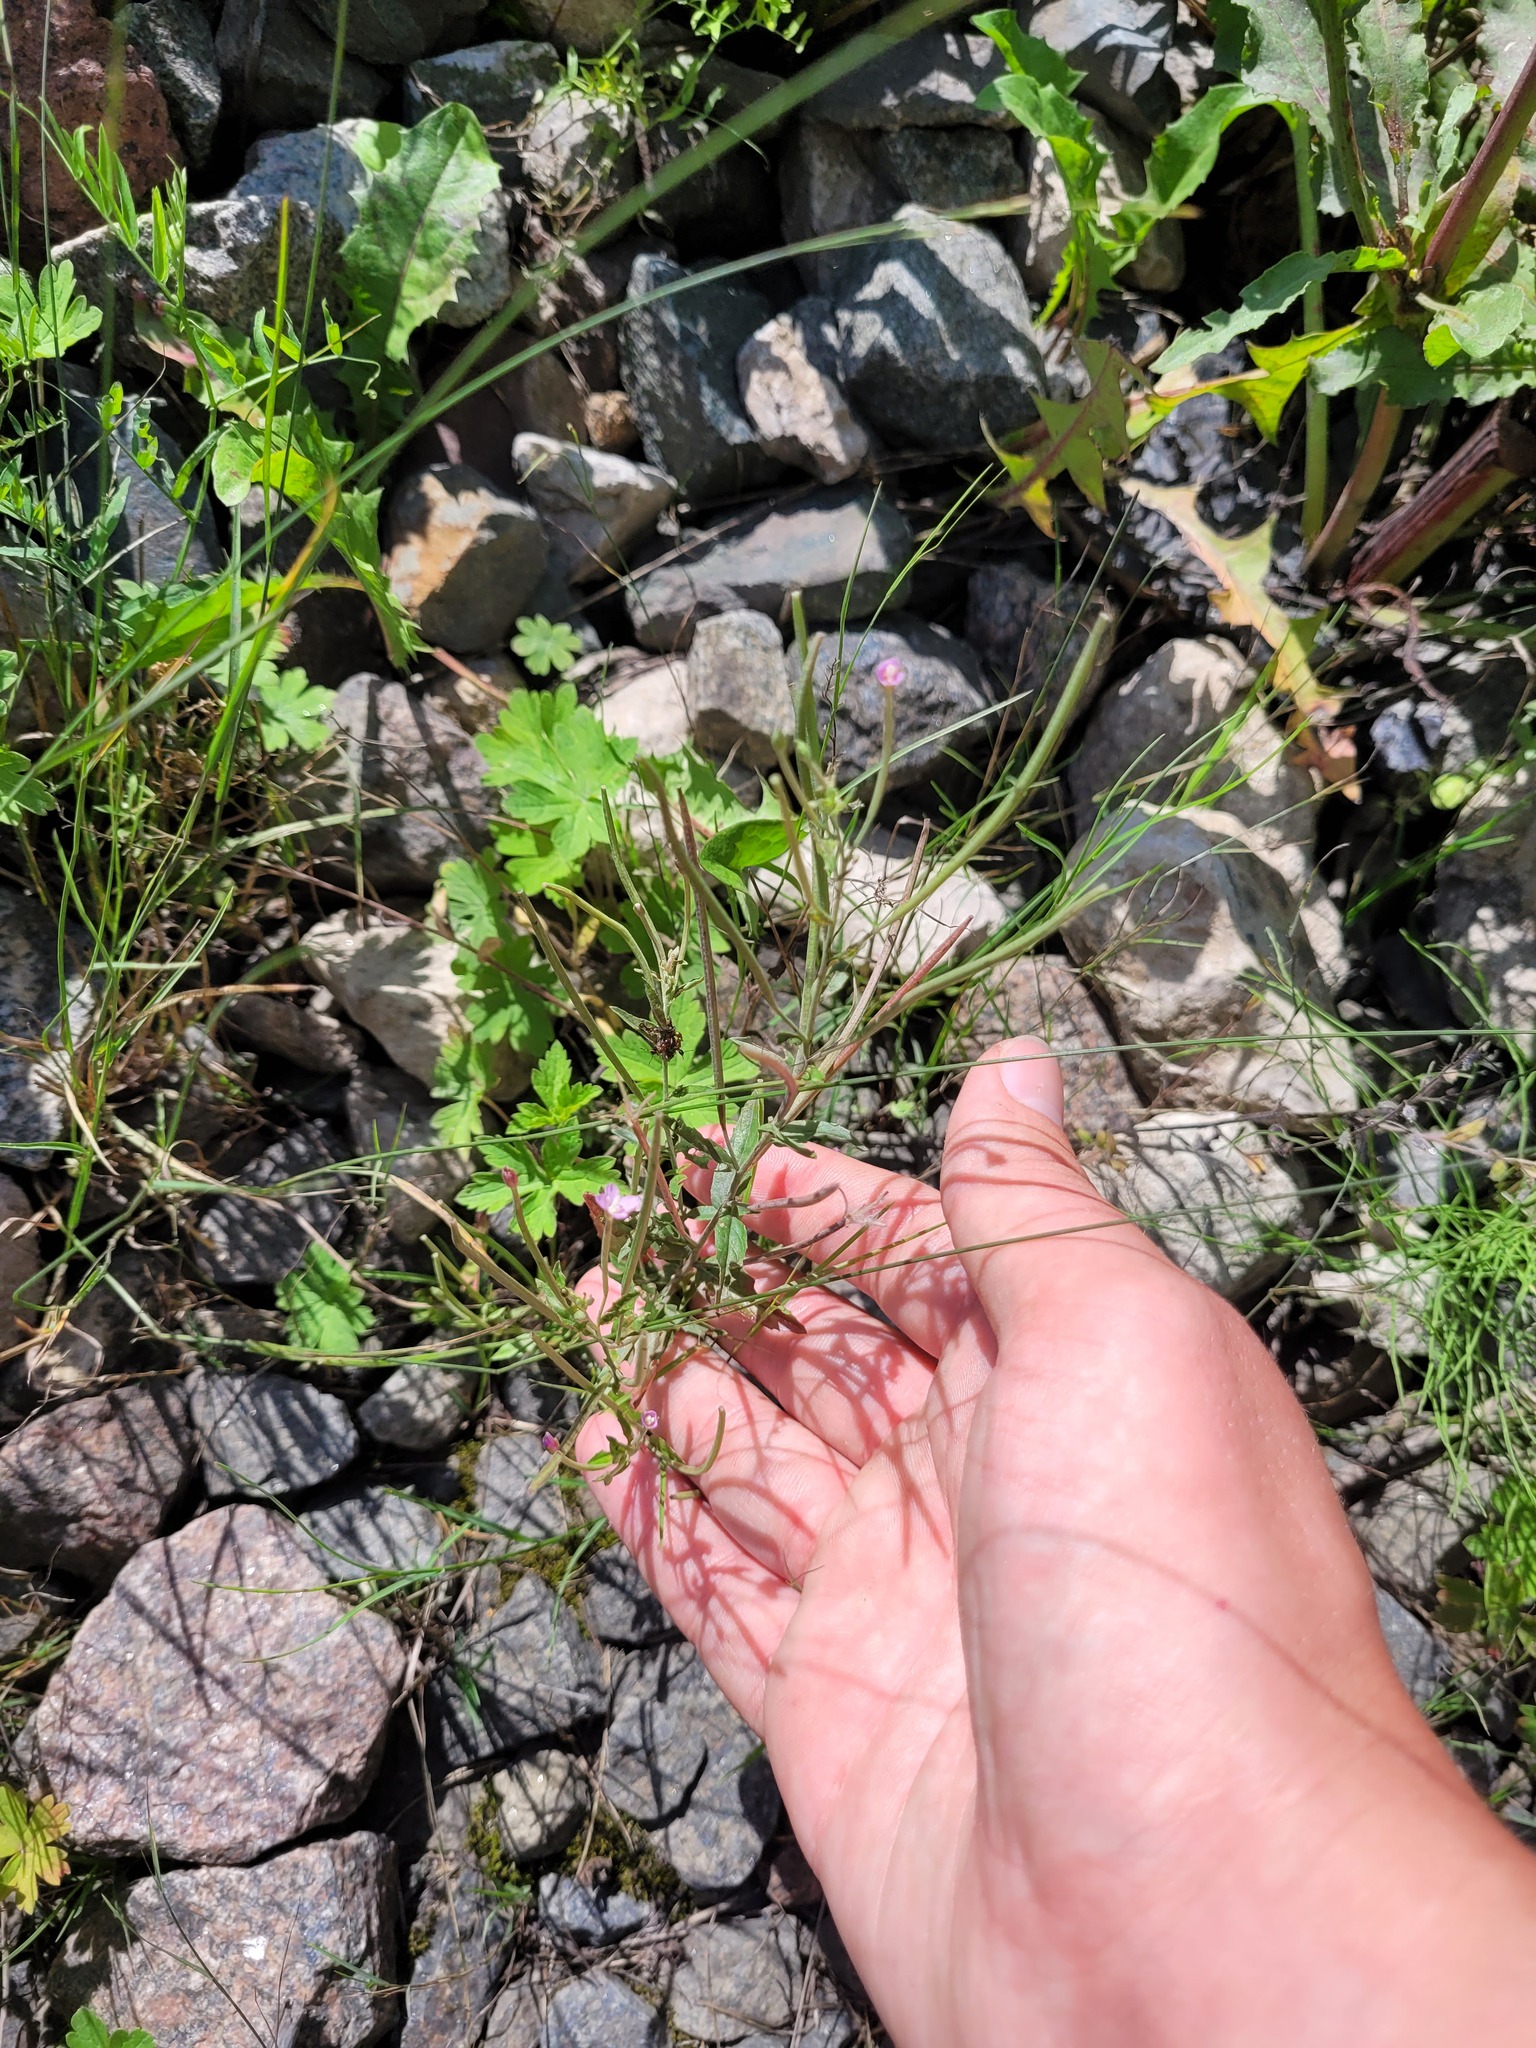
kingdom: Plantae
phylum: Tracheophyta
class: Magnoliopsida
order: Myrtales
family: Onagraceae
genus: Epilobium
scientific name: Epilobium tetragonum
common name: Square-stemmed willowherb
